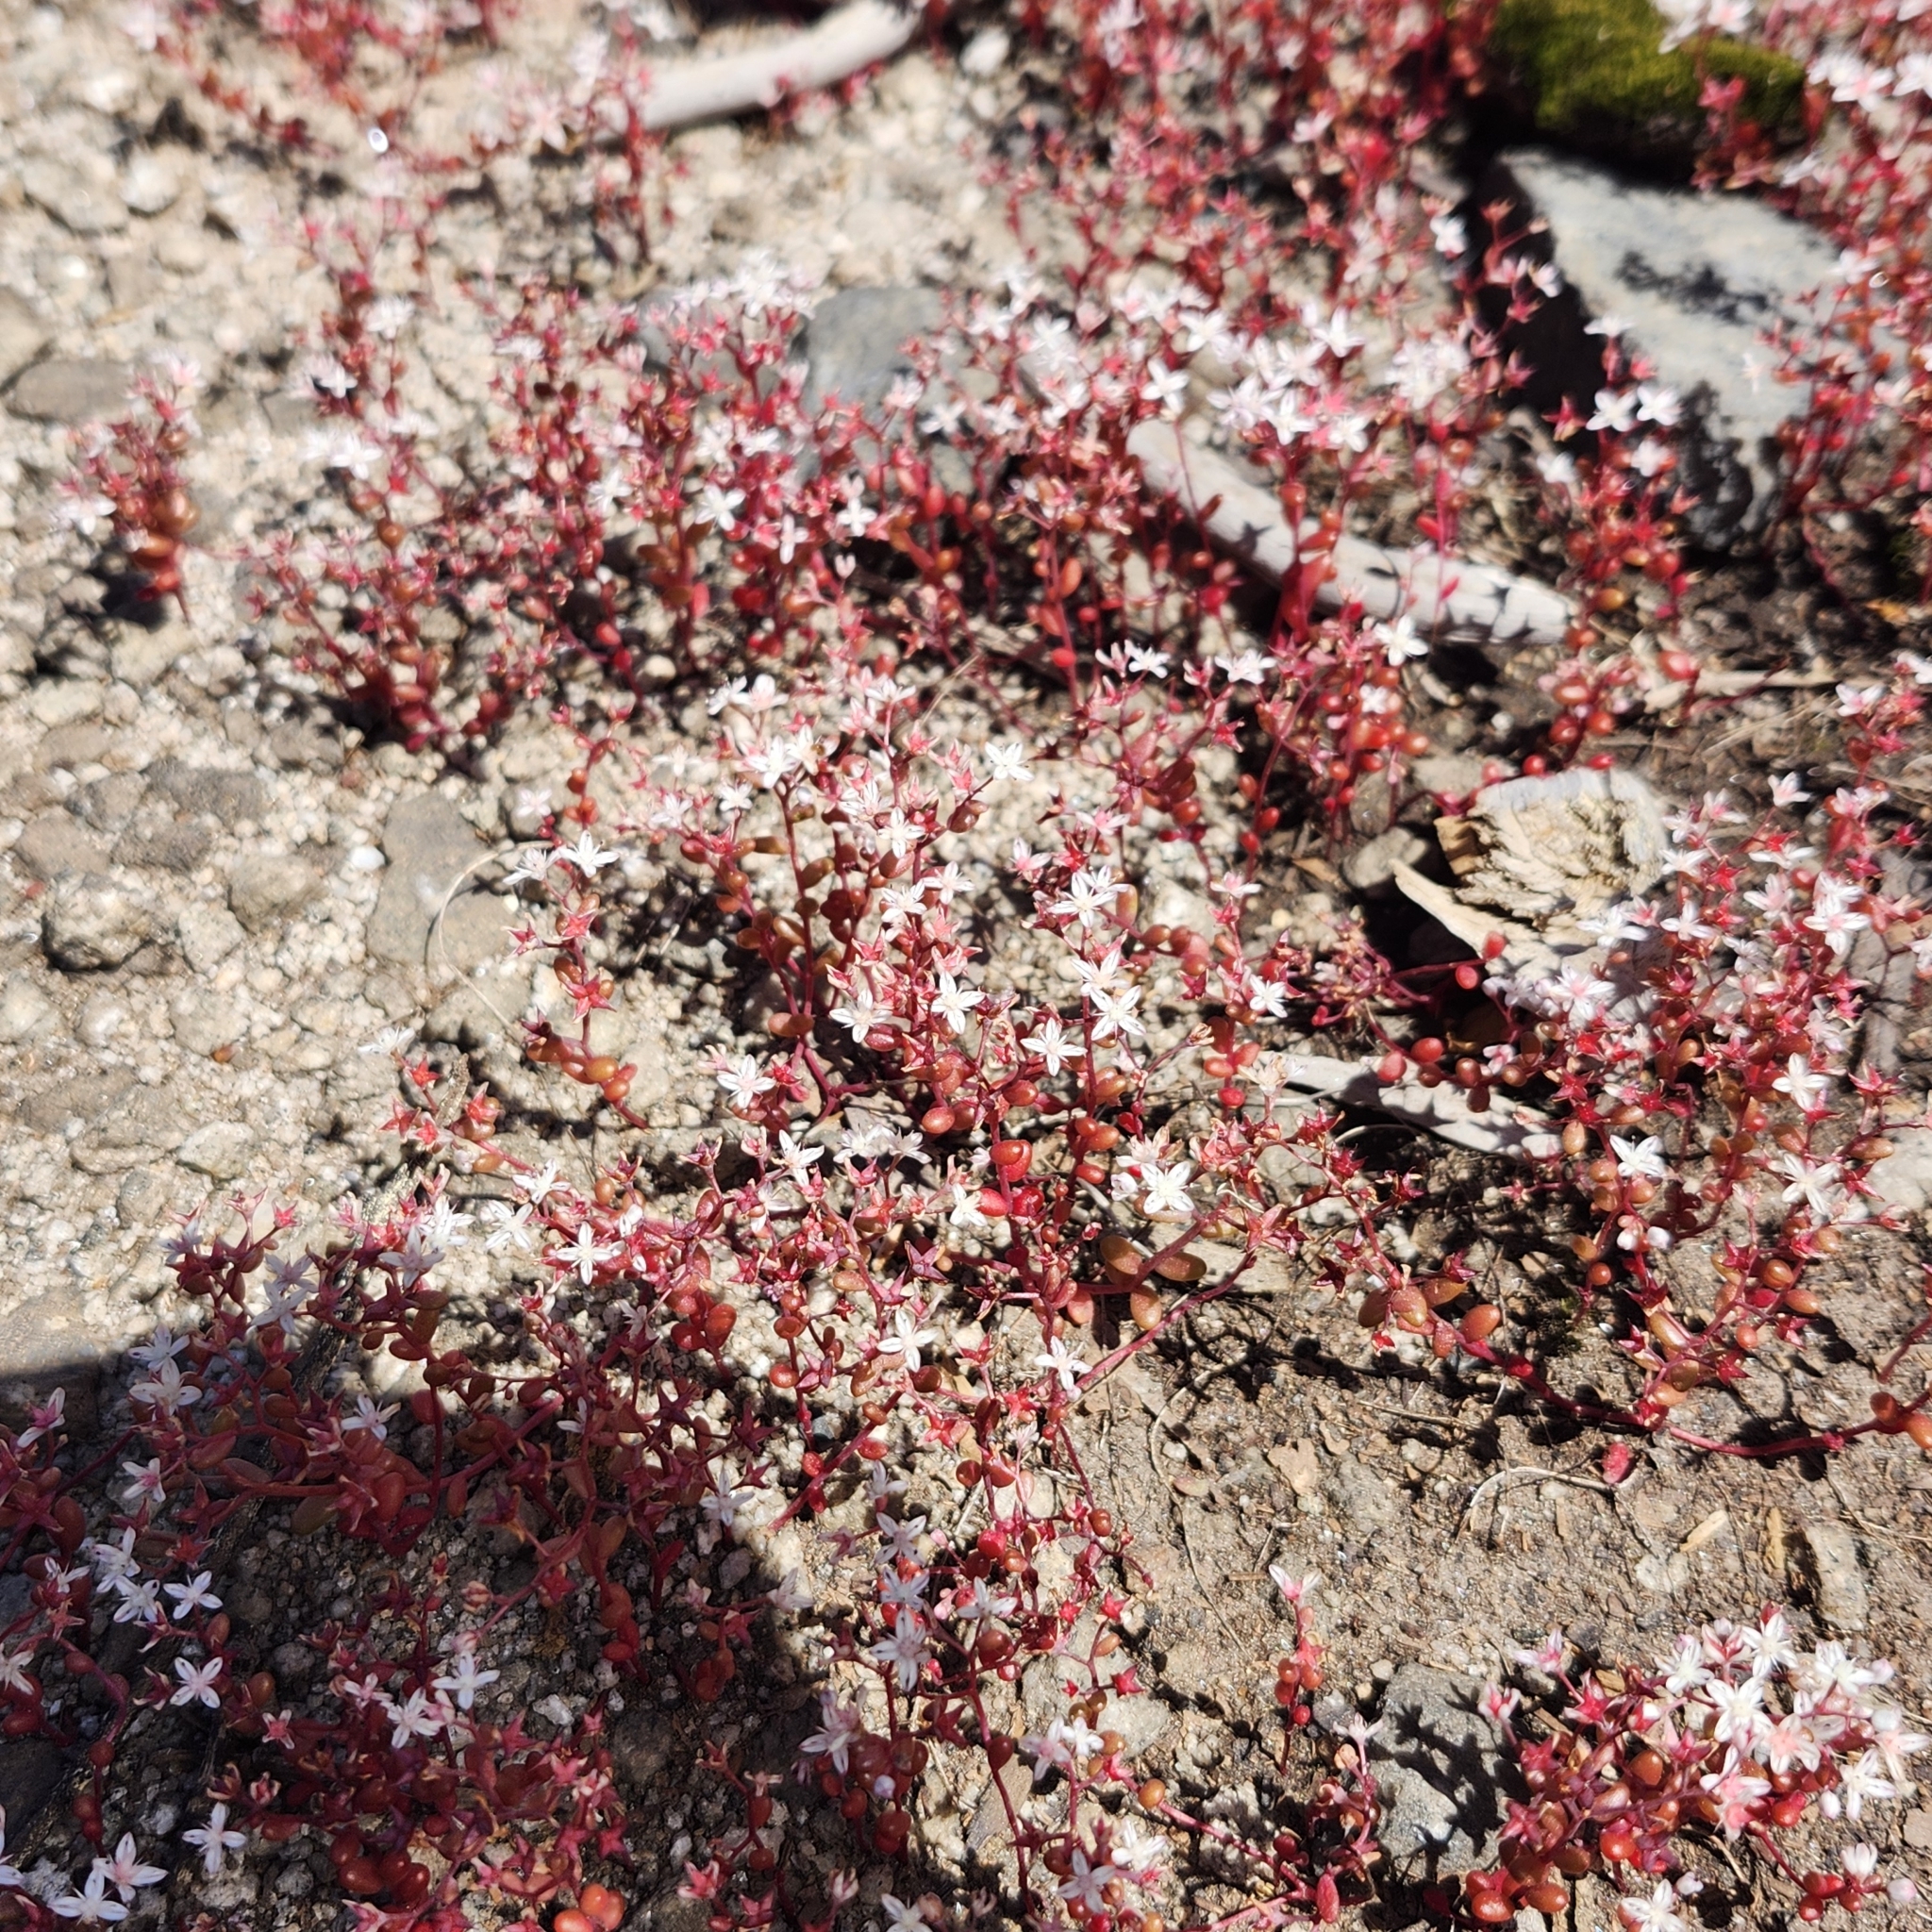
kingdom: Plantae
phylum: Tracheophyta
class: Magnoliopsida
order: Saxifragales
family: Crassulaceae
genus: Sedum
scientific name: Sedum smallii
